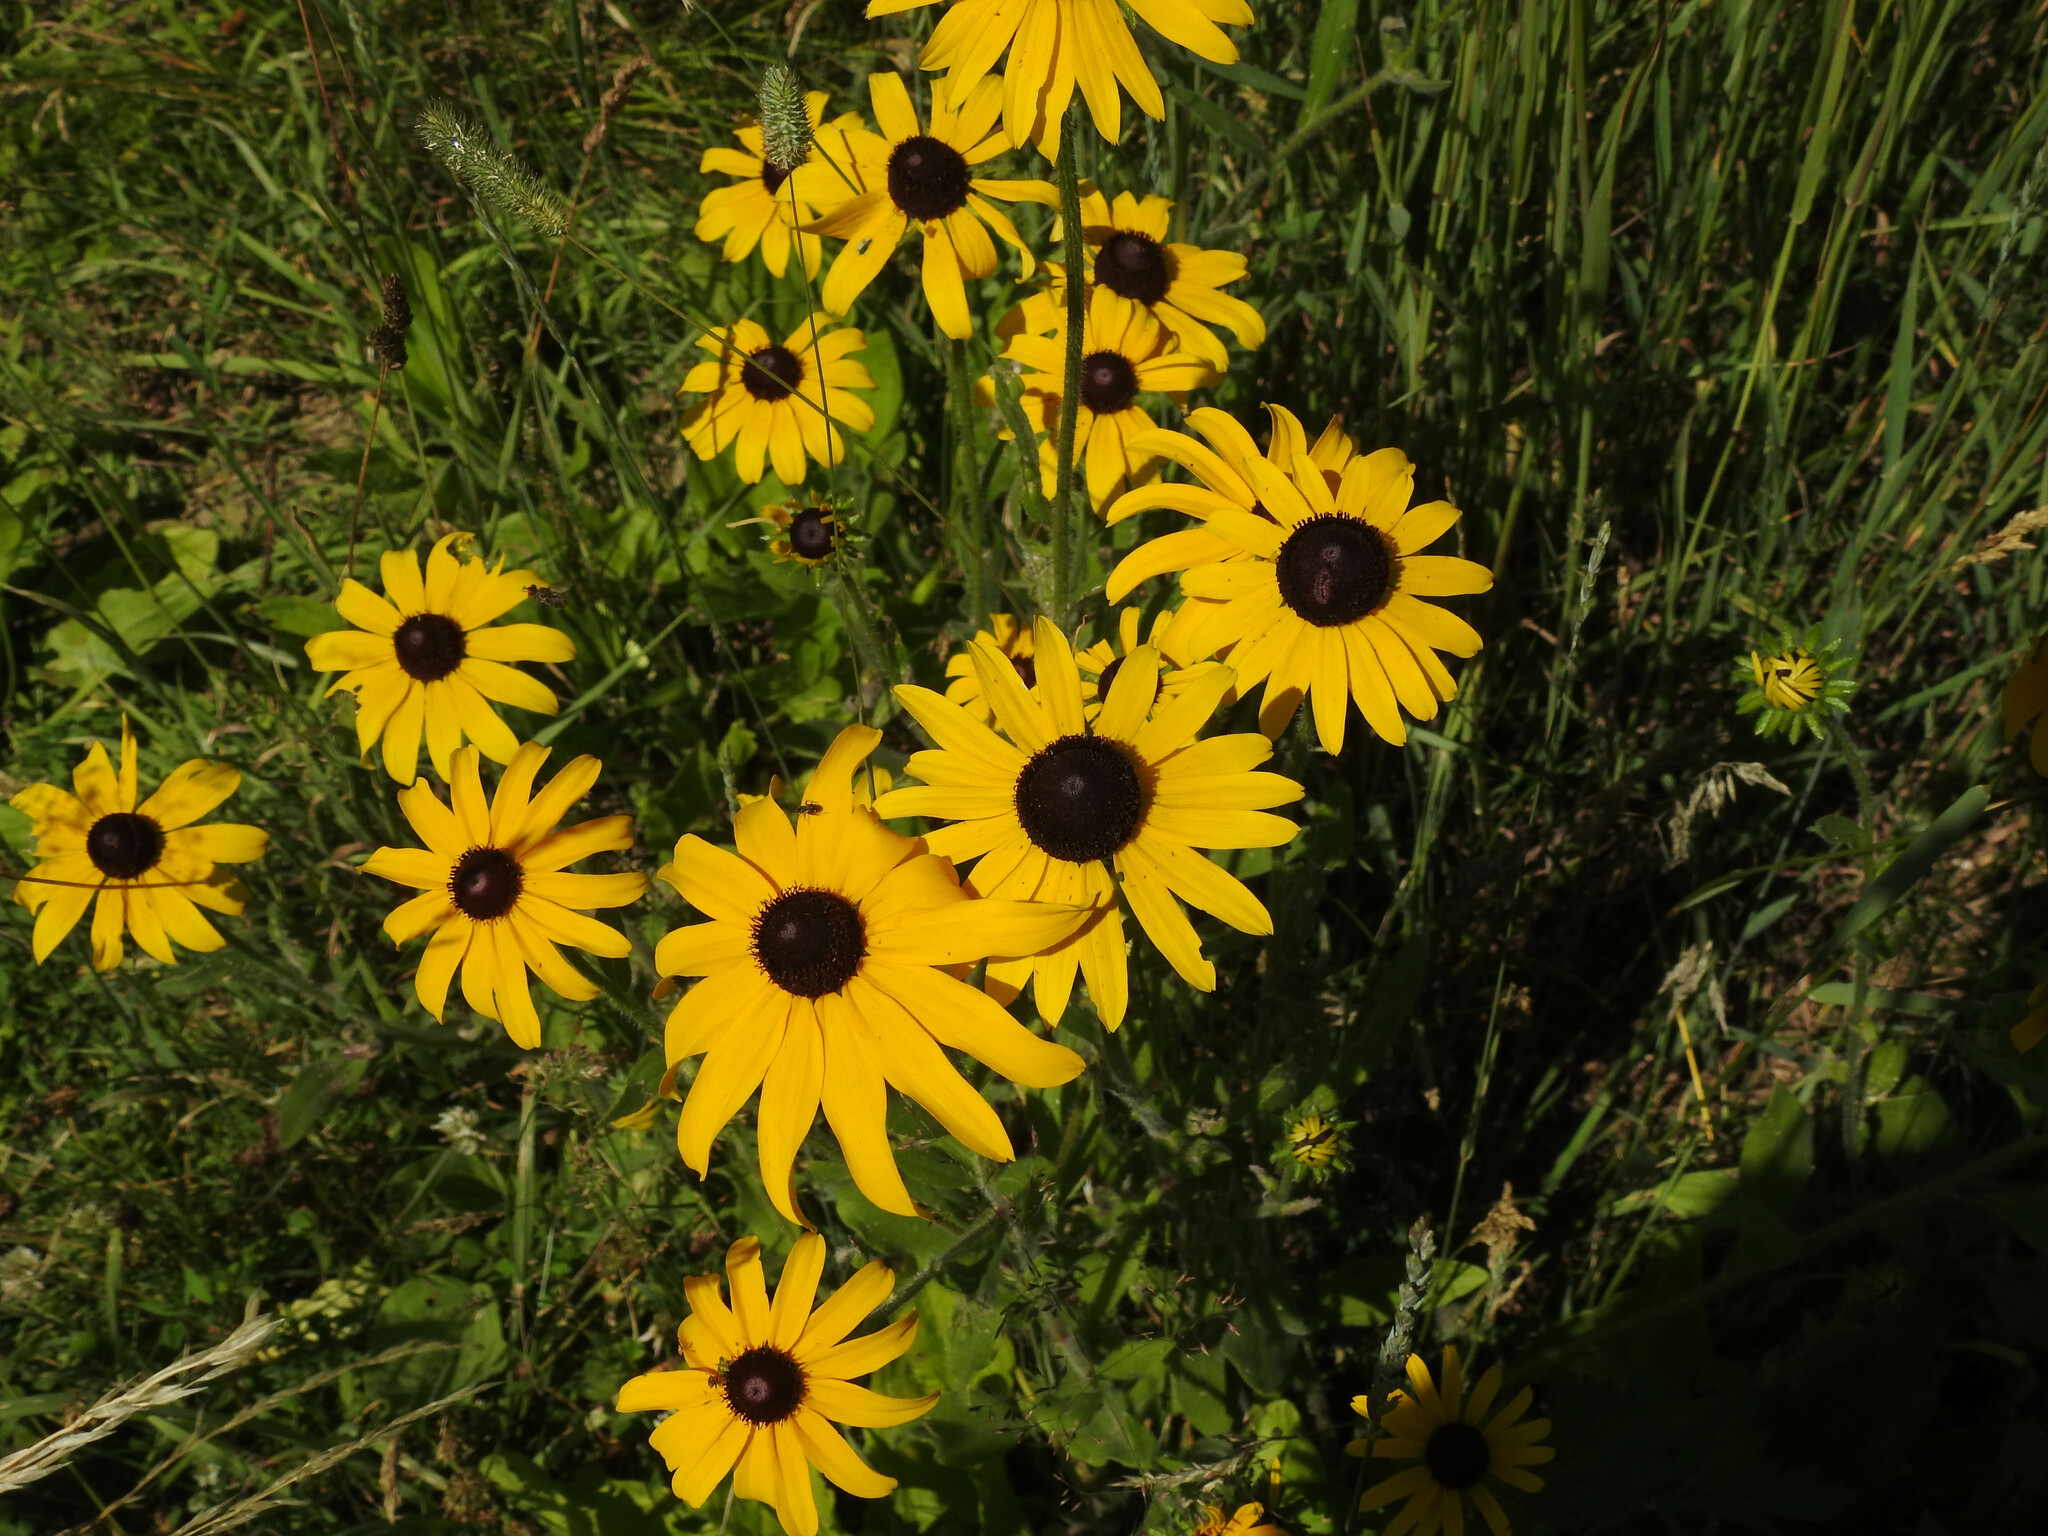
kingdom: Plantae
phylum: Tracheophyta
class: Magnoliopsida
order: Asterales
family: Asteraceae
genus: Rudbeckia
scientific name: Rudbeckia hirta
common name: Black-eyed-susan
